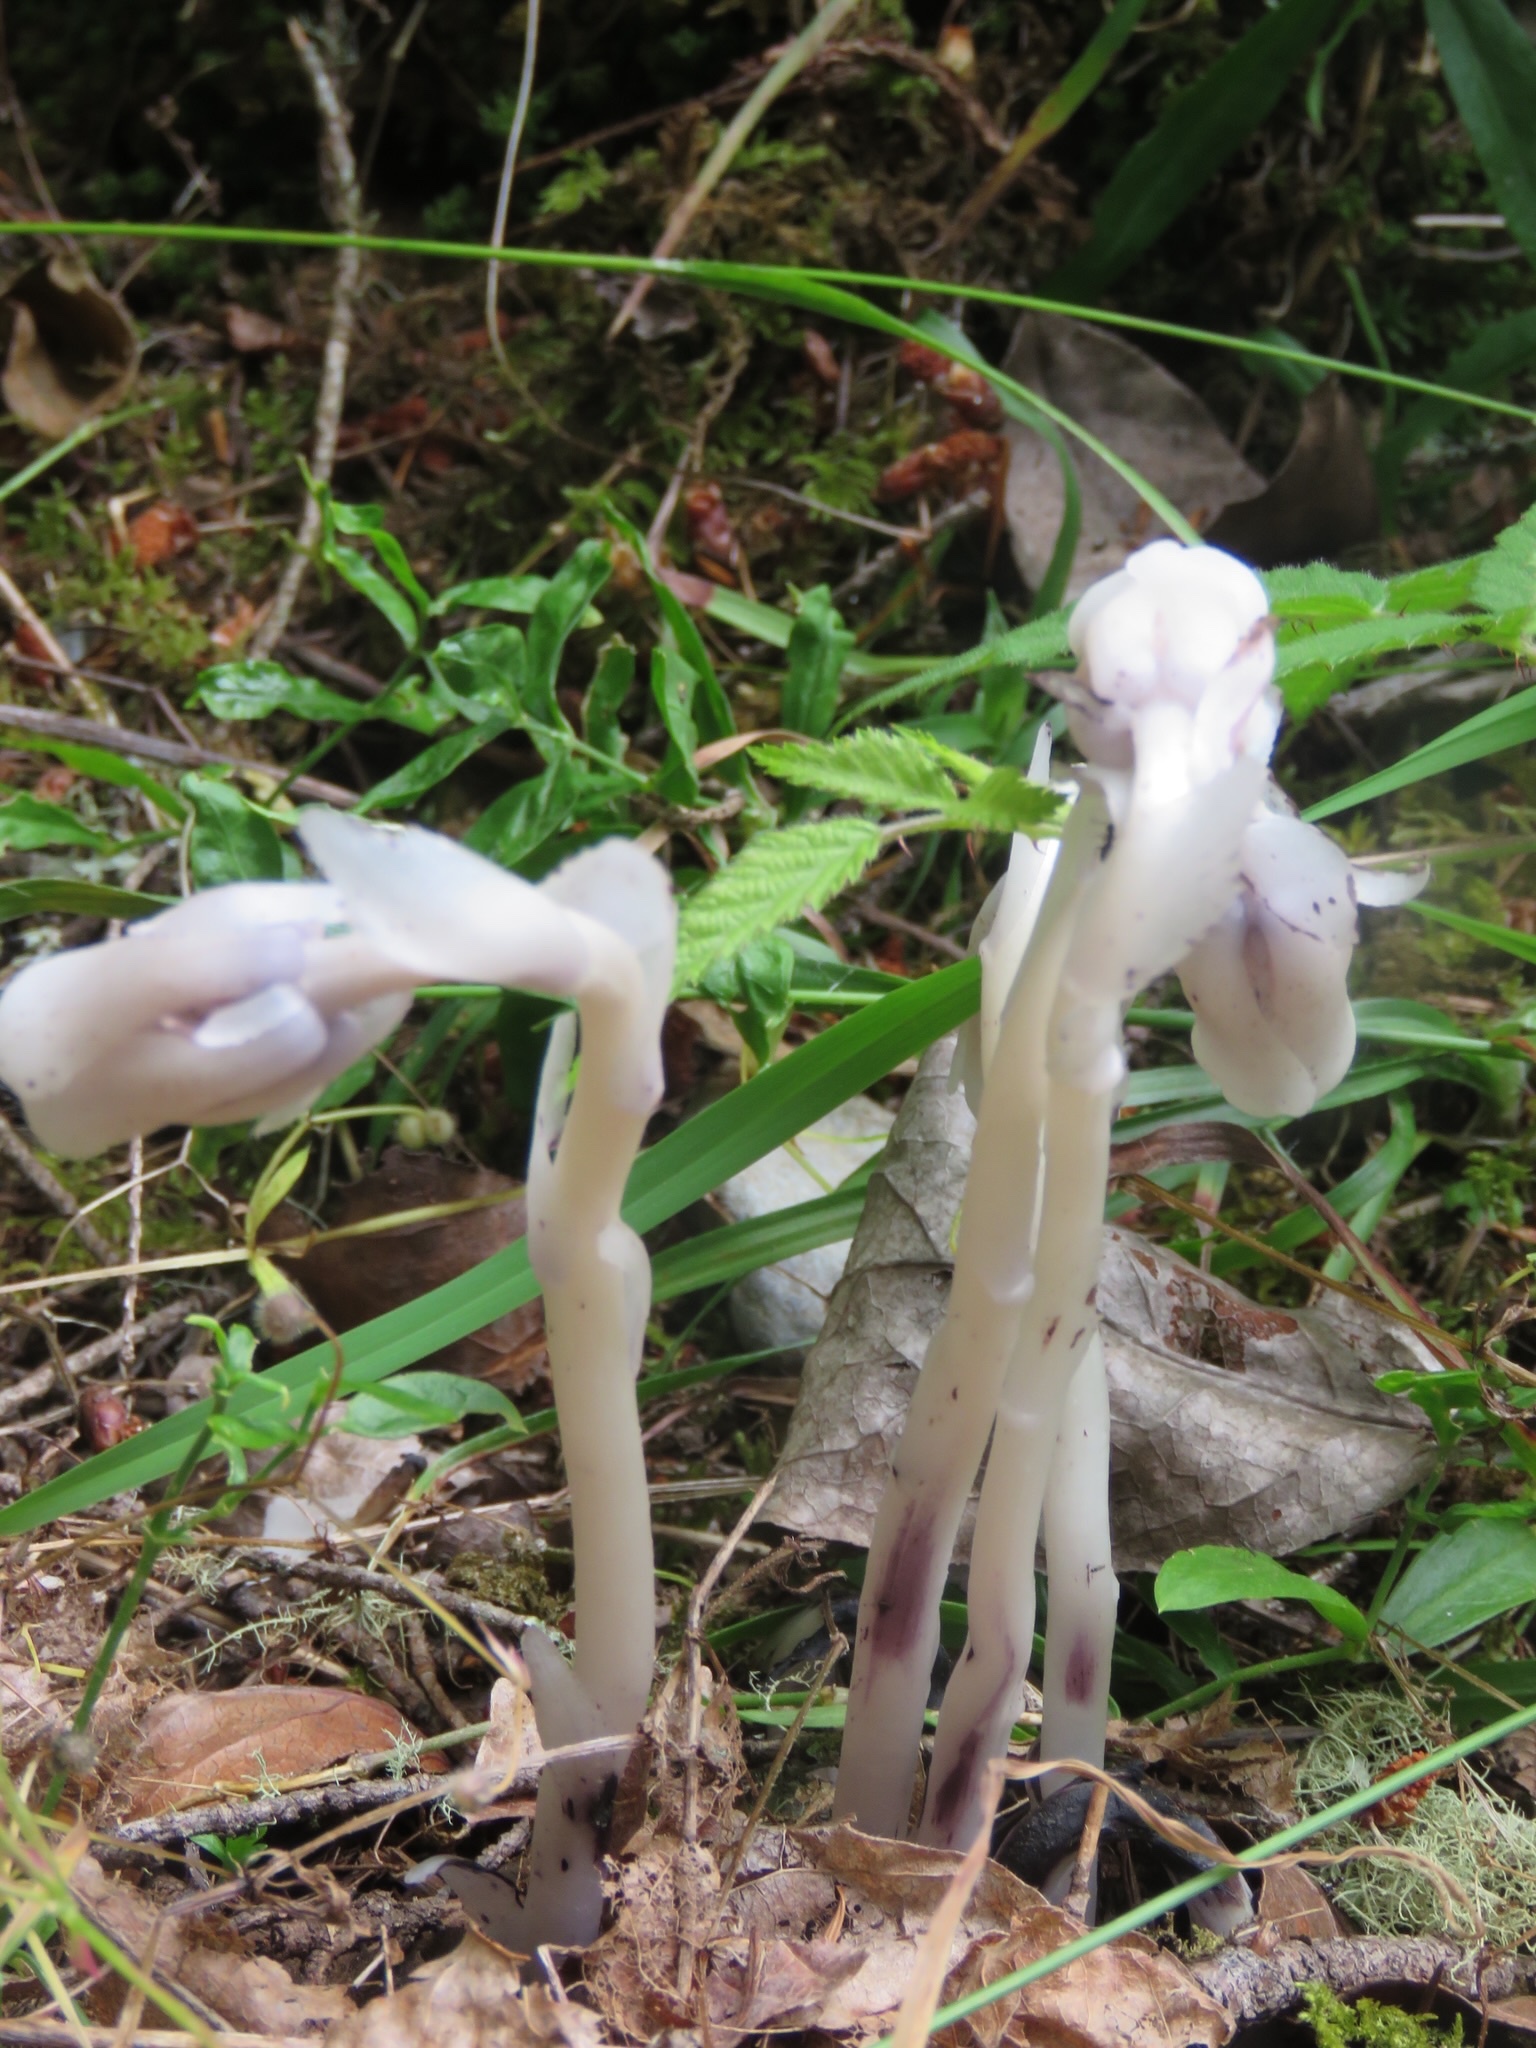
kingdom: Plantae
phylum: Tracheophyta
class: Magnoliopsida
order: Ericales
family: Ericaceae
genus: Monotropa
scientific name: Monotropa uniflora
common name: Convulsion root
